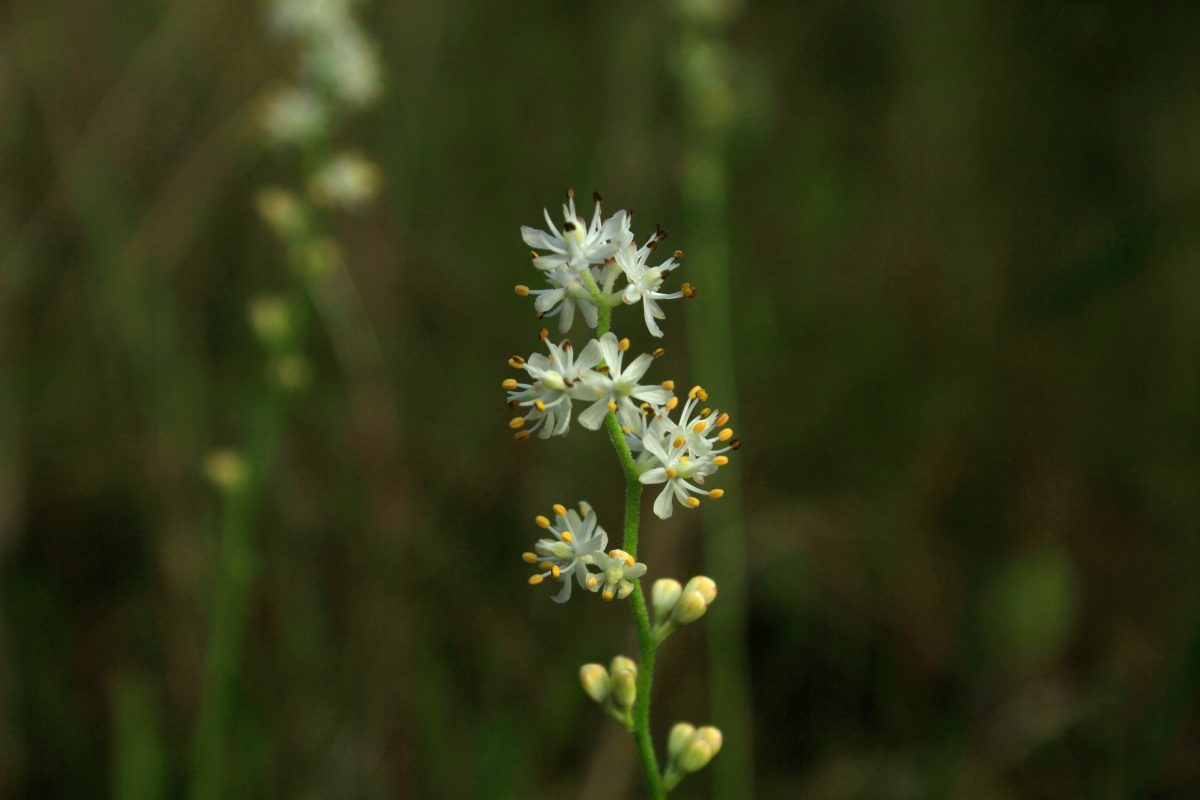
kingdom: Plantae
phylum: Tracheophyta
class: Liliopsida
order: Alismatales
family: Tofieldiaceae
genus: Triantha
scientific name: Triantha racemosa
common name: Coastal false asphodel
